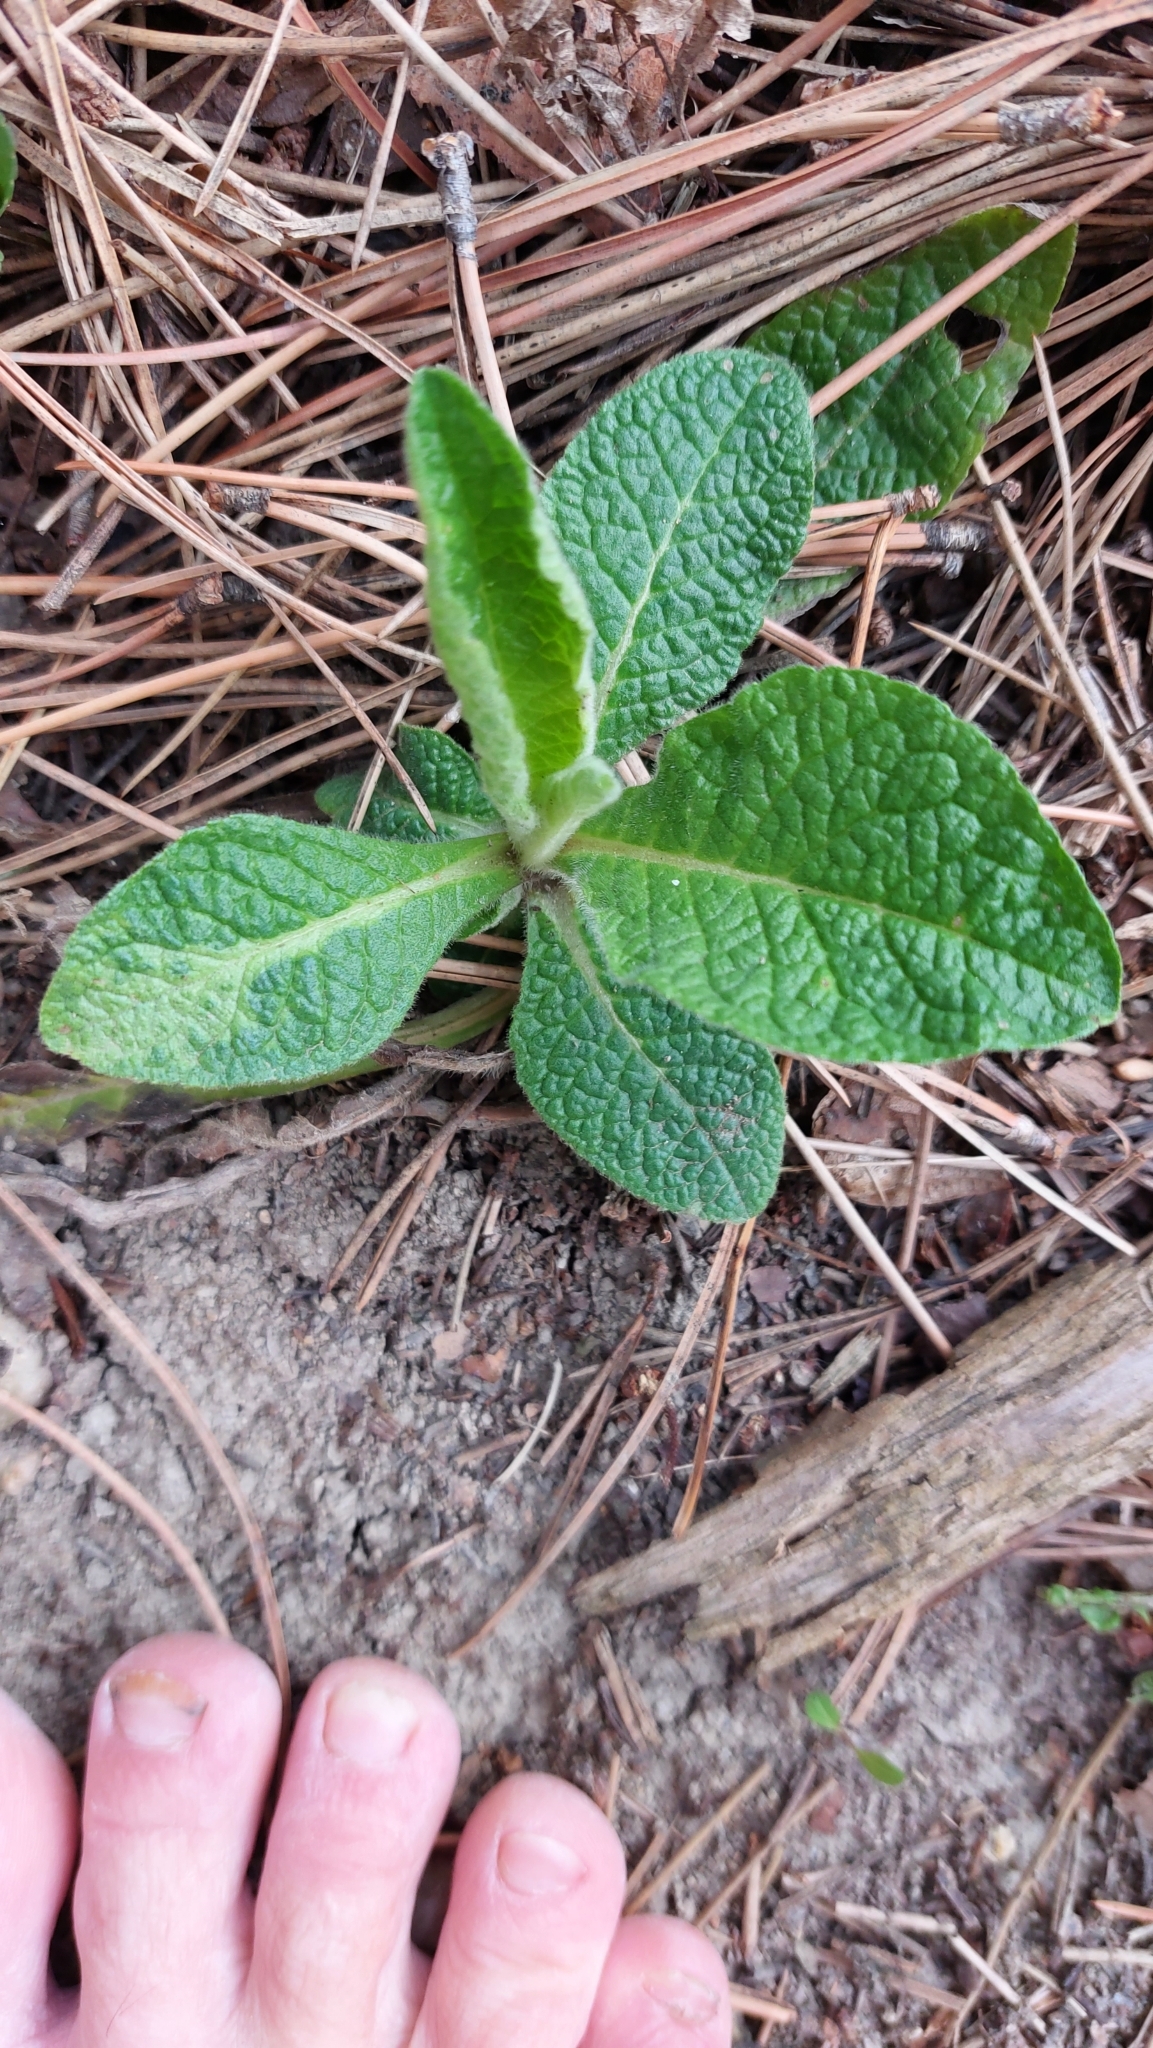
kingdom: Plantae
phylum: Tracheophyta
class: Magnoliopsida
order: Asterales
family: Asteraceae
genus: Pentanema
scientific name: Pentanema squarrosum
